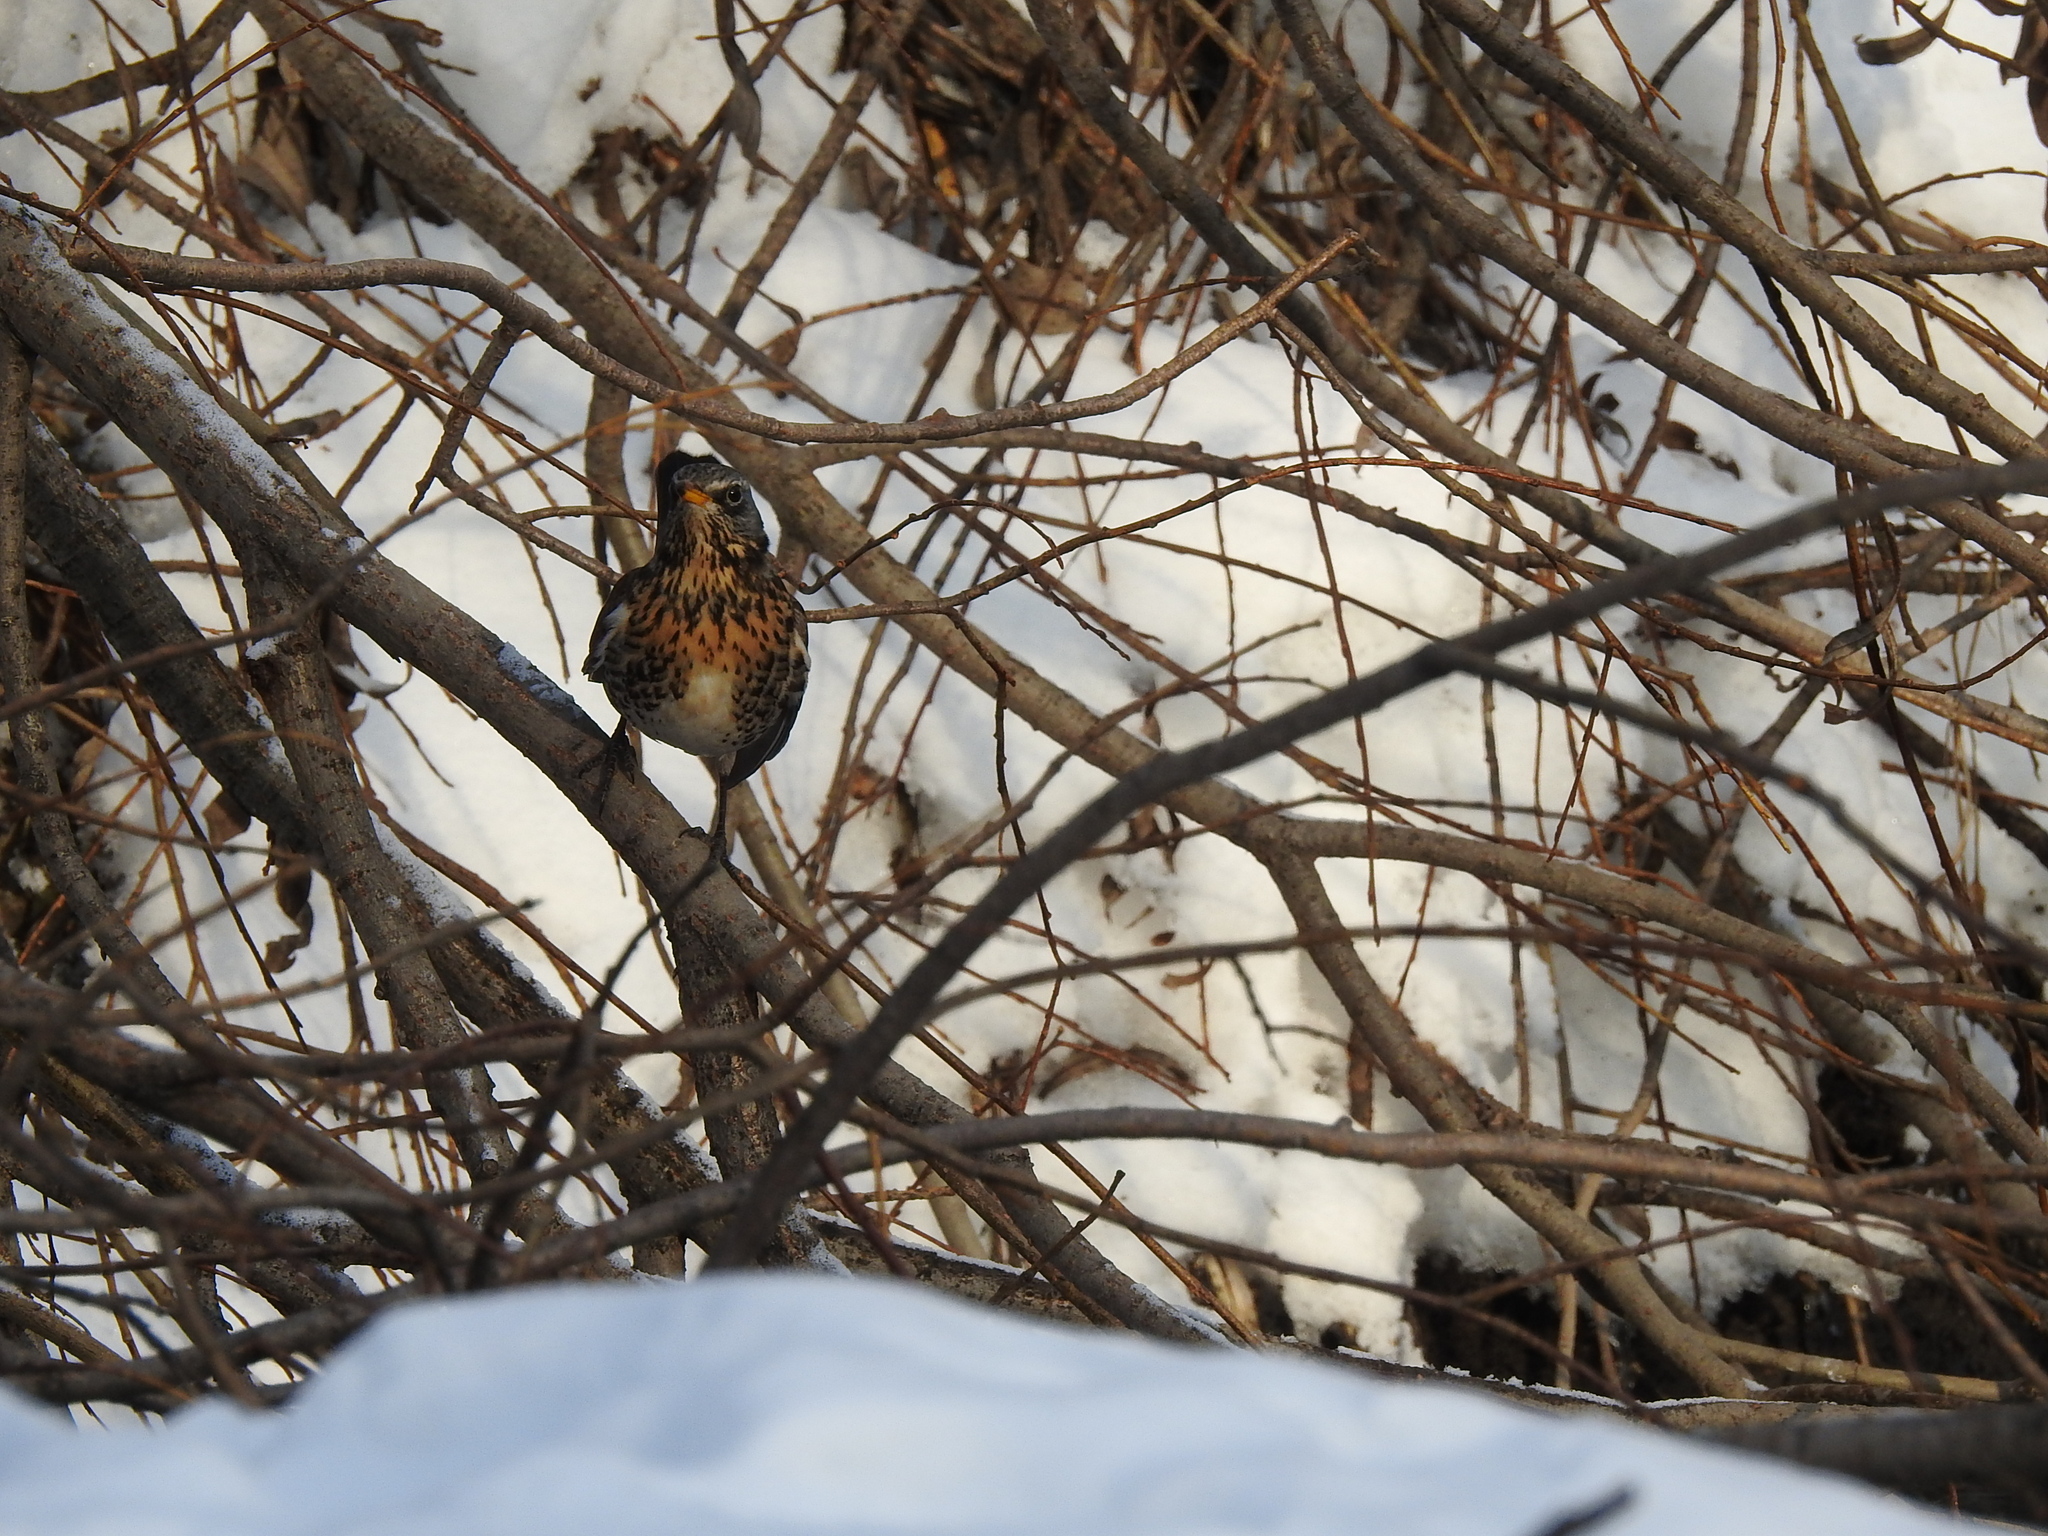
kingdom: Animalia
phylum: Chordata
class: Aves
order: Passeriformes
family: Turdidae
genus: Turdus
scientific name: Turdus pilaris
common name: Fieldfare
